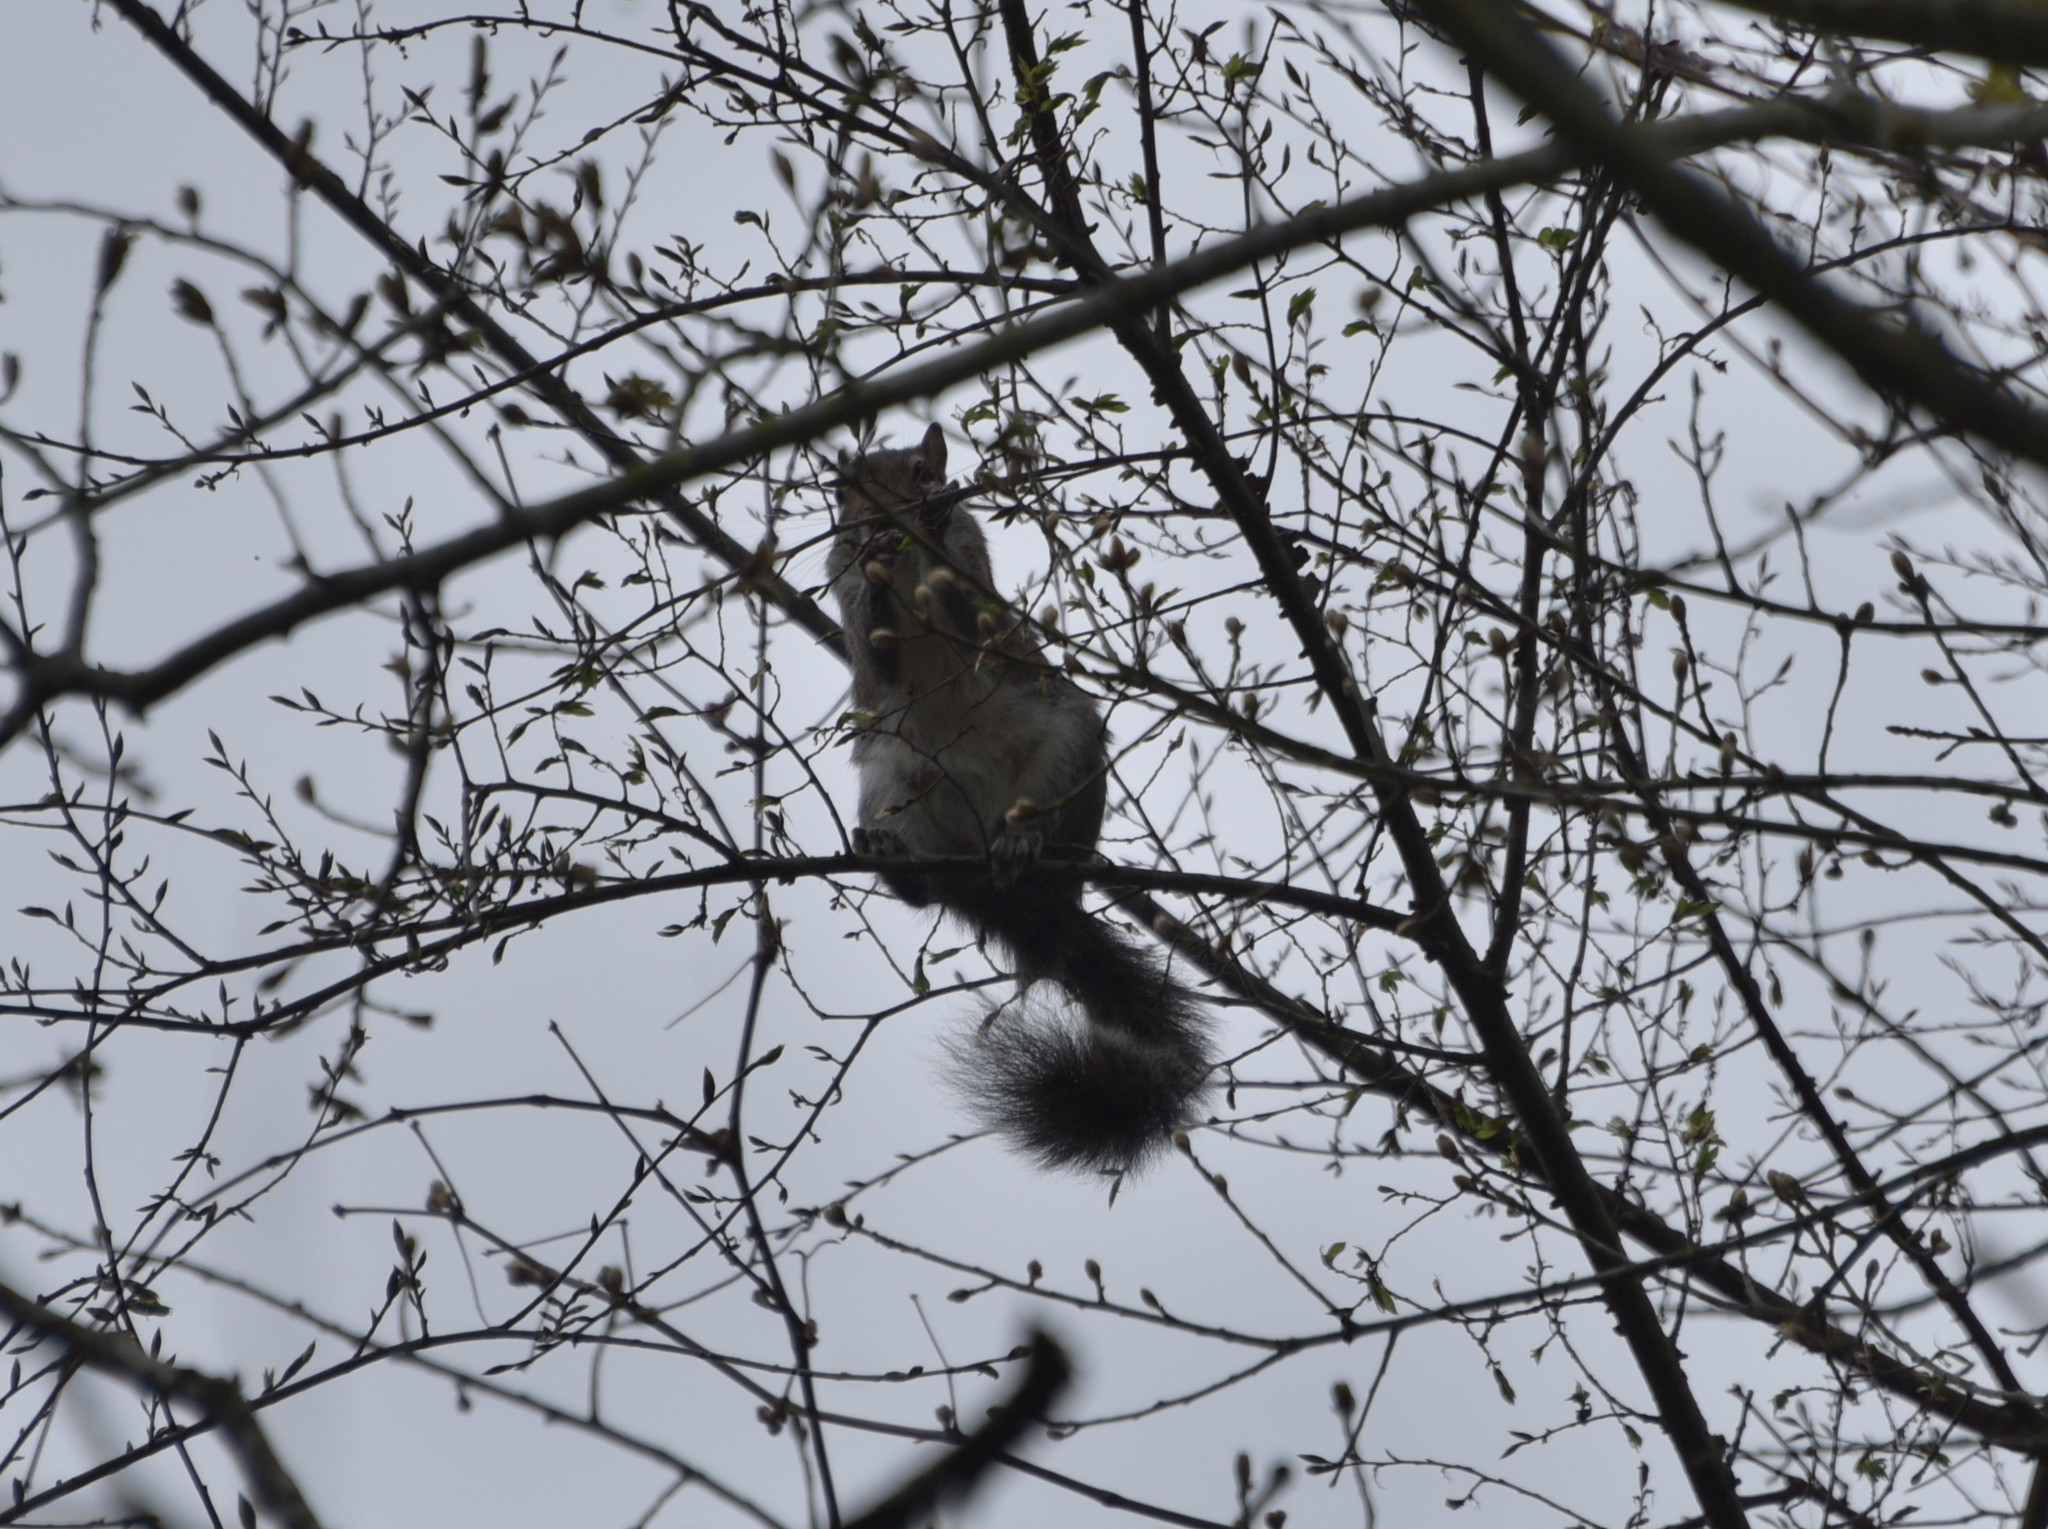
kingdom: Animalia
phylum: Chordata
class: Mammalia
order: Rodentia
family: Sciuridae
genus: Sciurus
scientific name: Sciurus carolinensis
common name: Eastern gray squirrel
